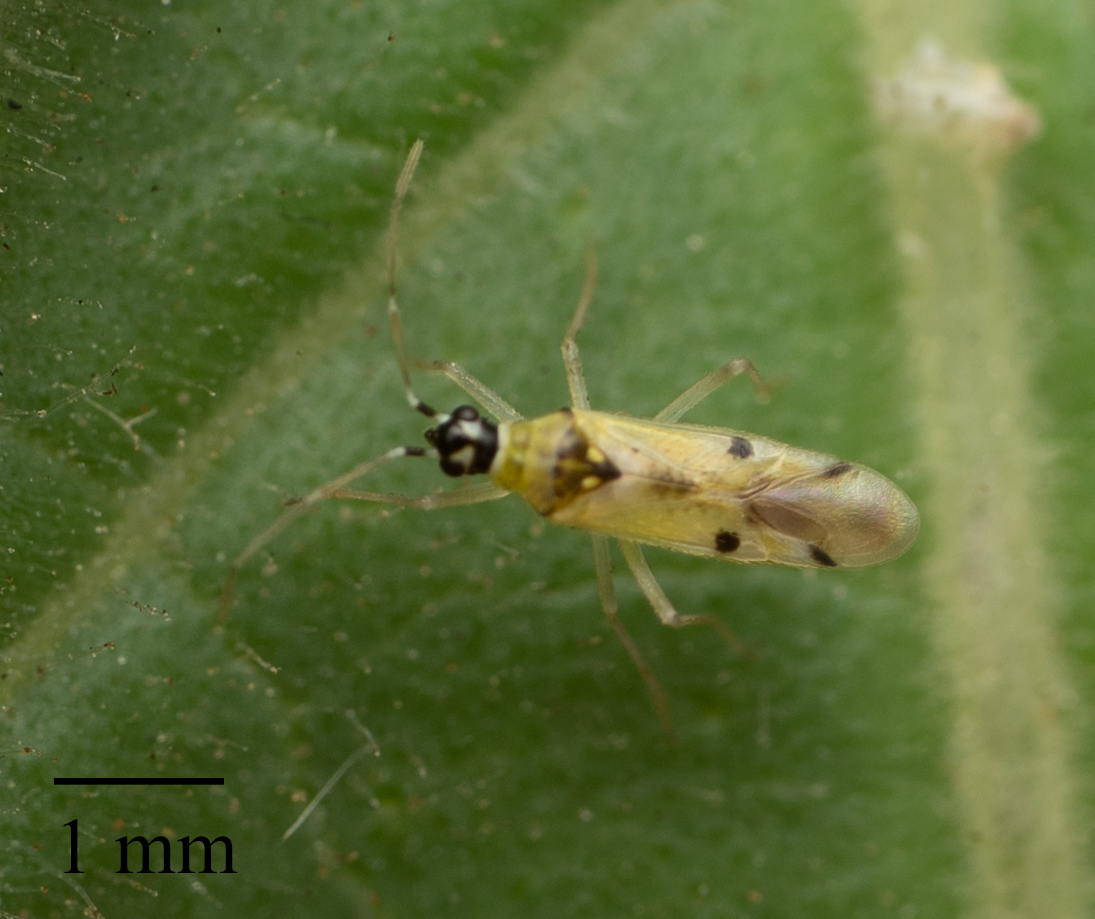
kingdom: Animalia
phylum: Arthropoda
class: Insecta
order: Hemiptera
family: Miridae
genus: Tupiocoris
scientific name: Tupiocoris notatus
